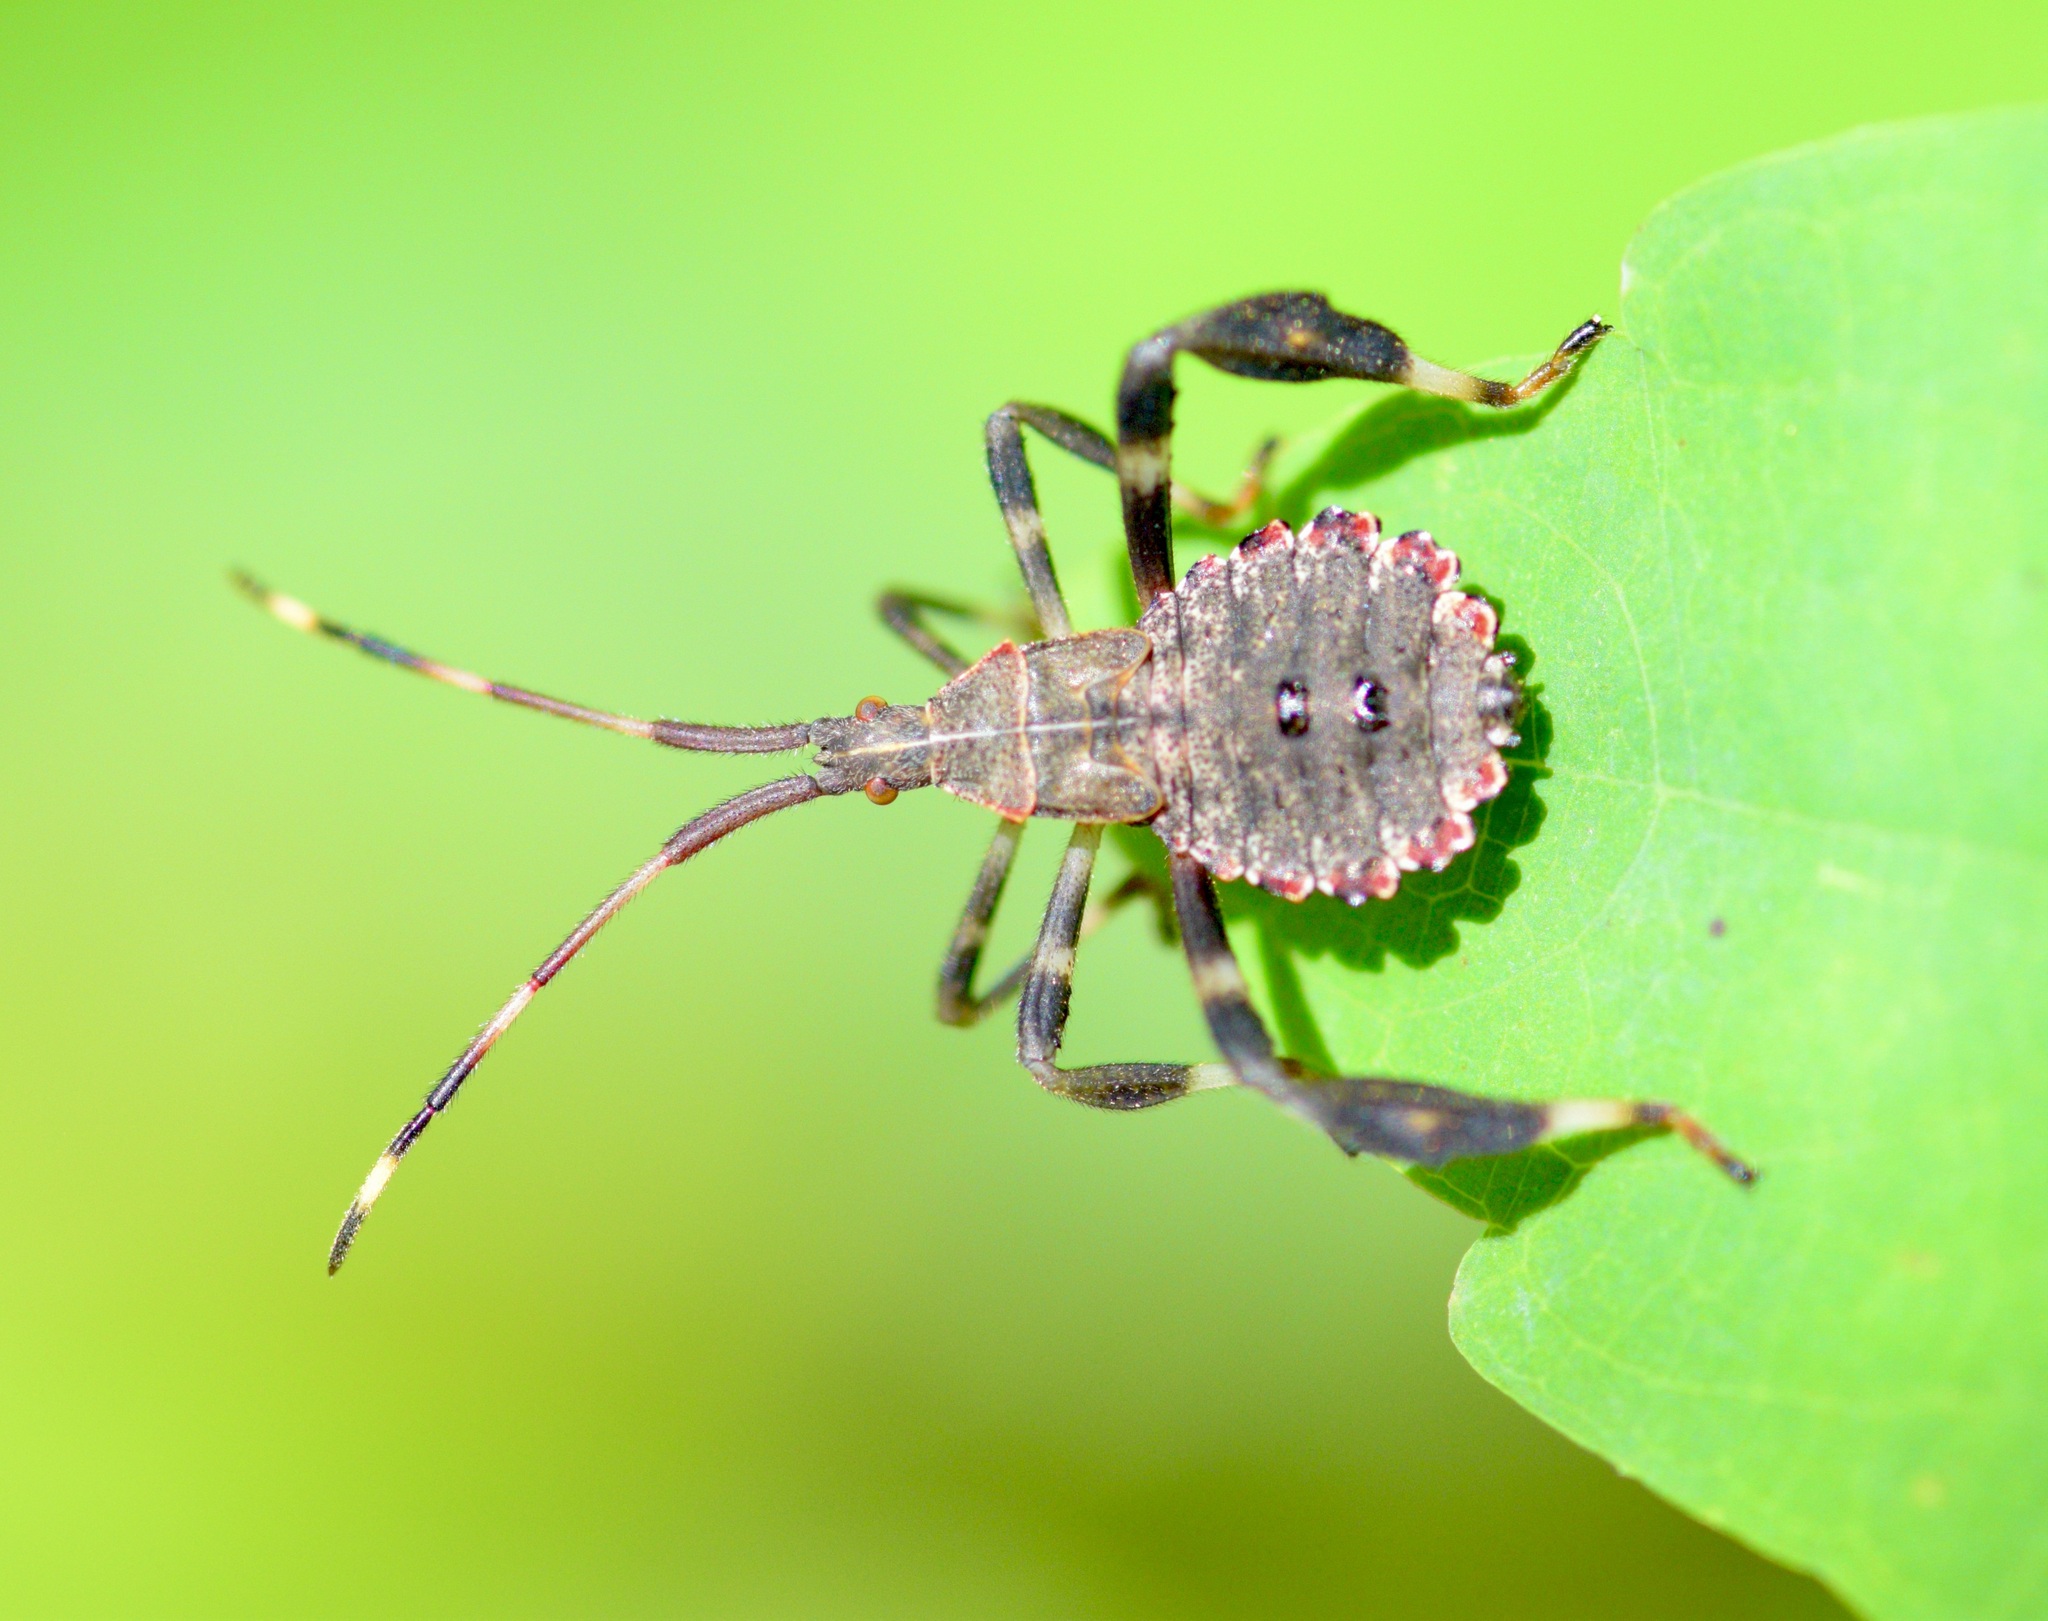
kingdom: Animalia
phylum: Arthropoda
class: Insecta
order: Hemiptera
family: Coreidae
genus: Acanthocephala
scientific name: Acanthocephala terminalis
